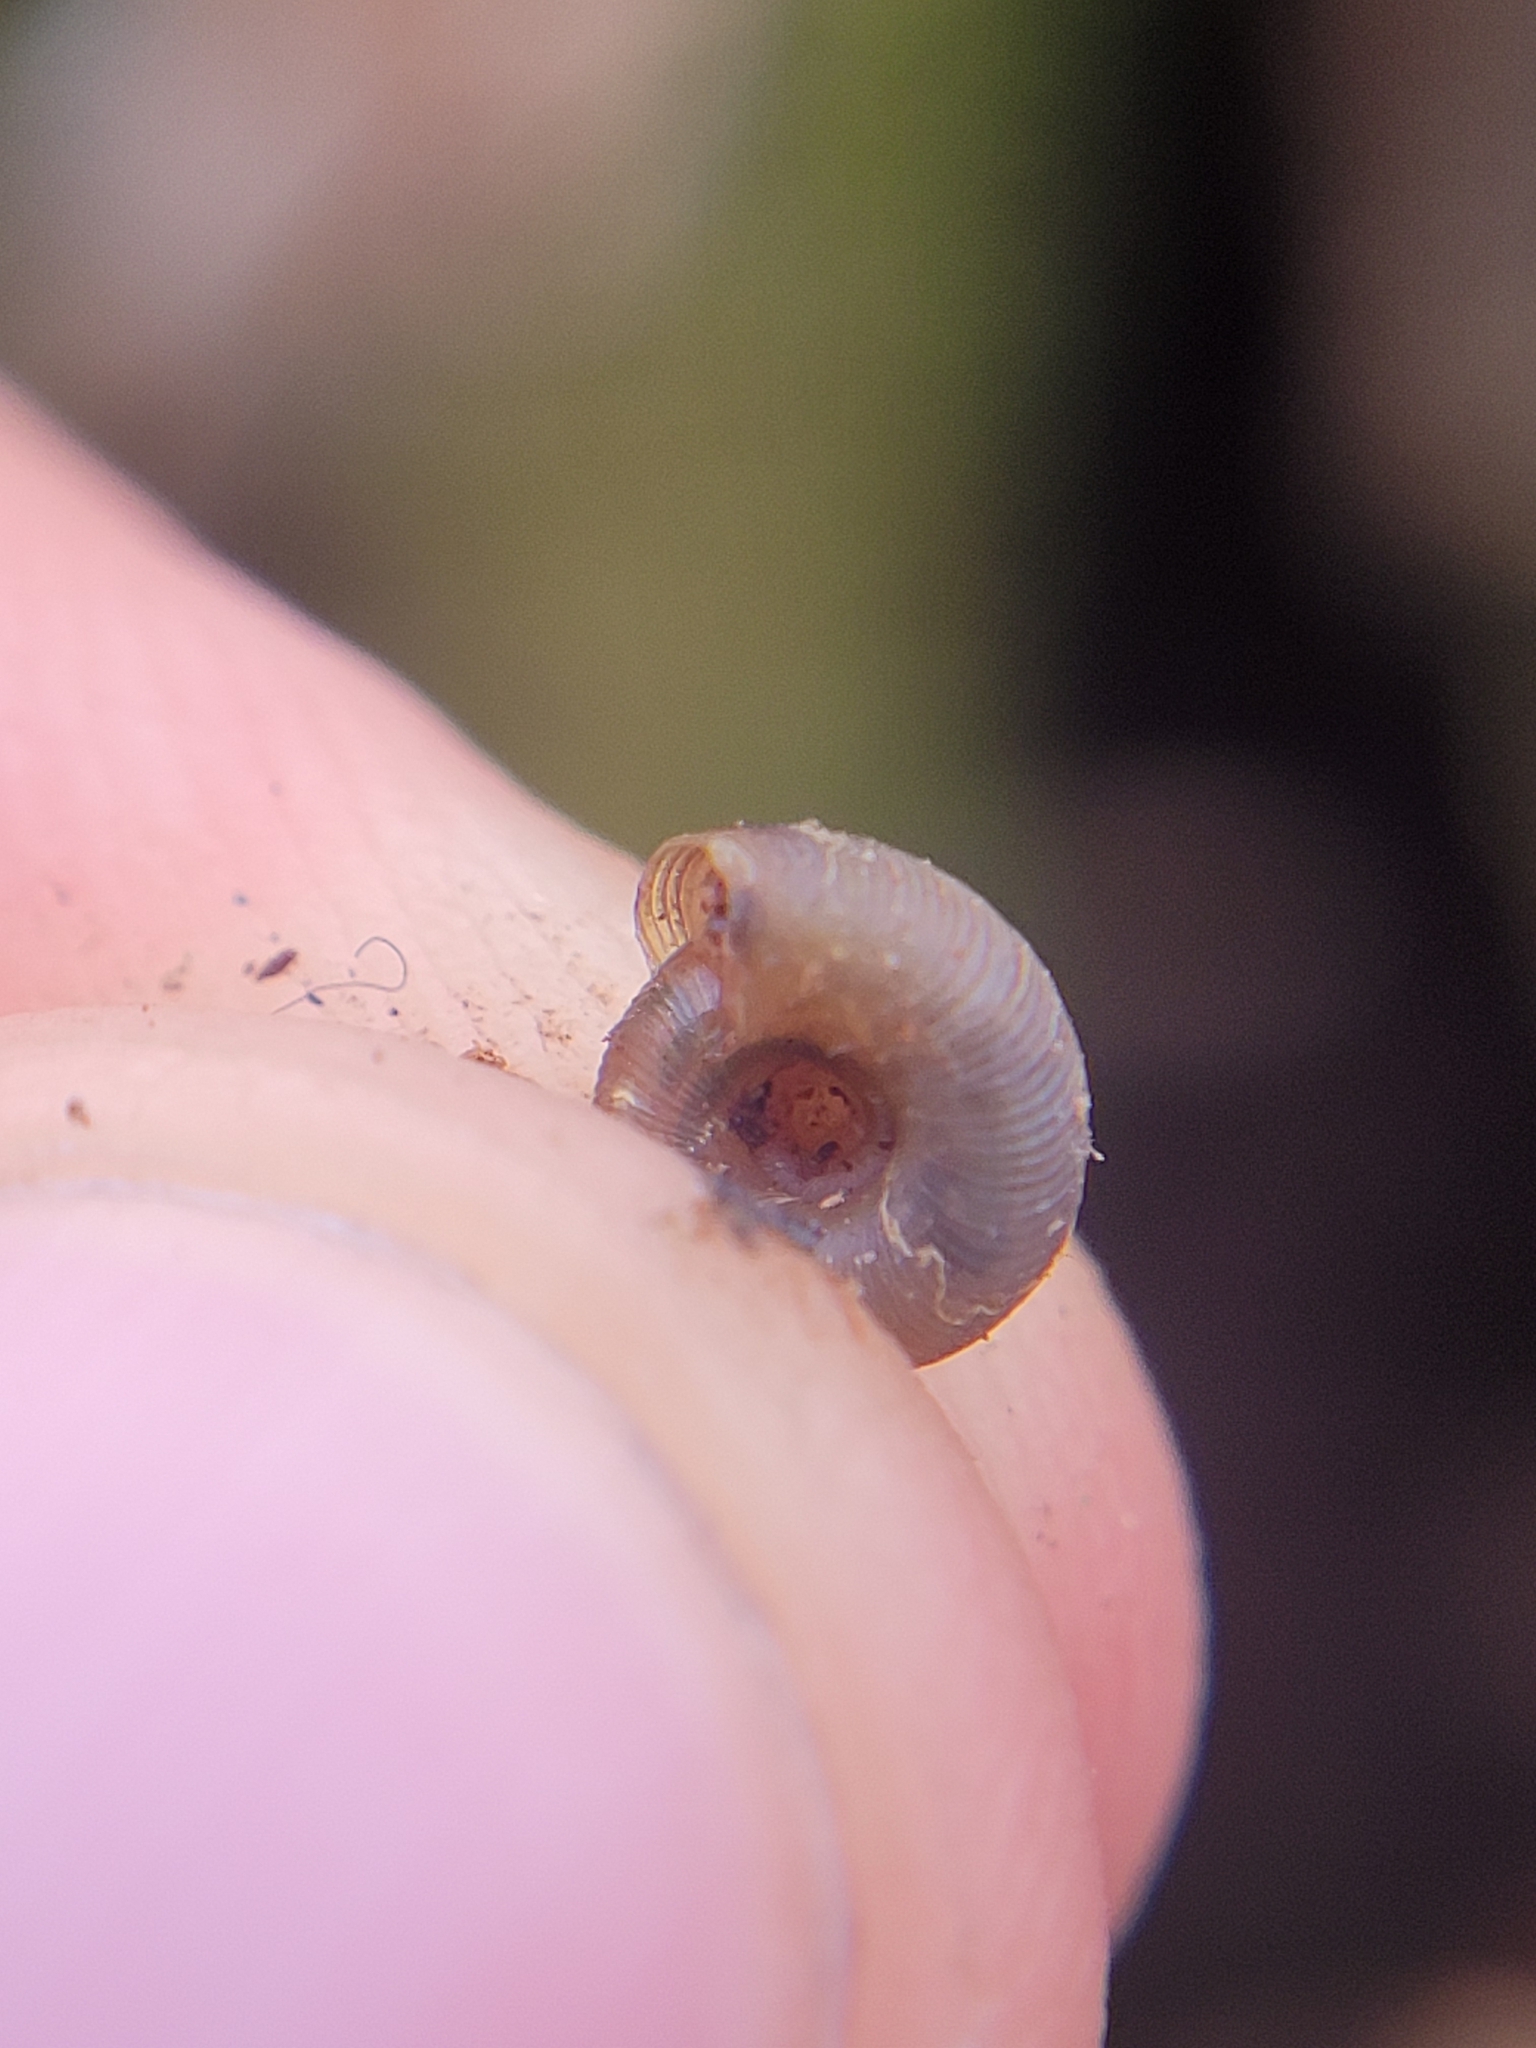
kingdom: Animalia
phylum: Mollusca
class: Gastropoda
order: Stylommatophora
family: Discidae
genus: Discus
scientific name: Discus ruderatus
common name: Brown disc snail
